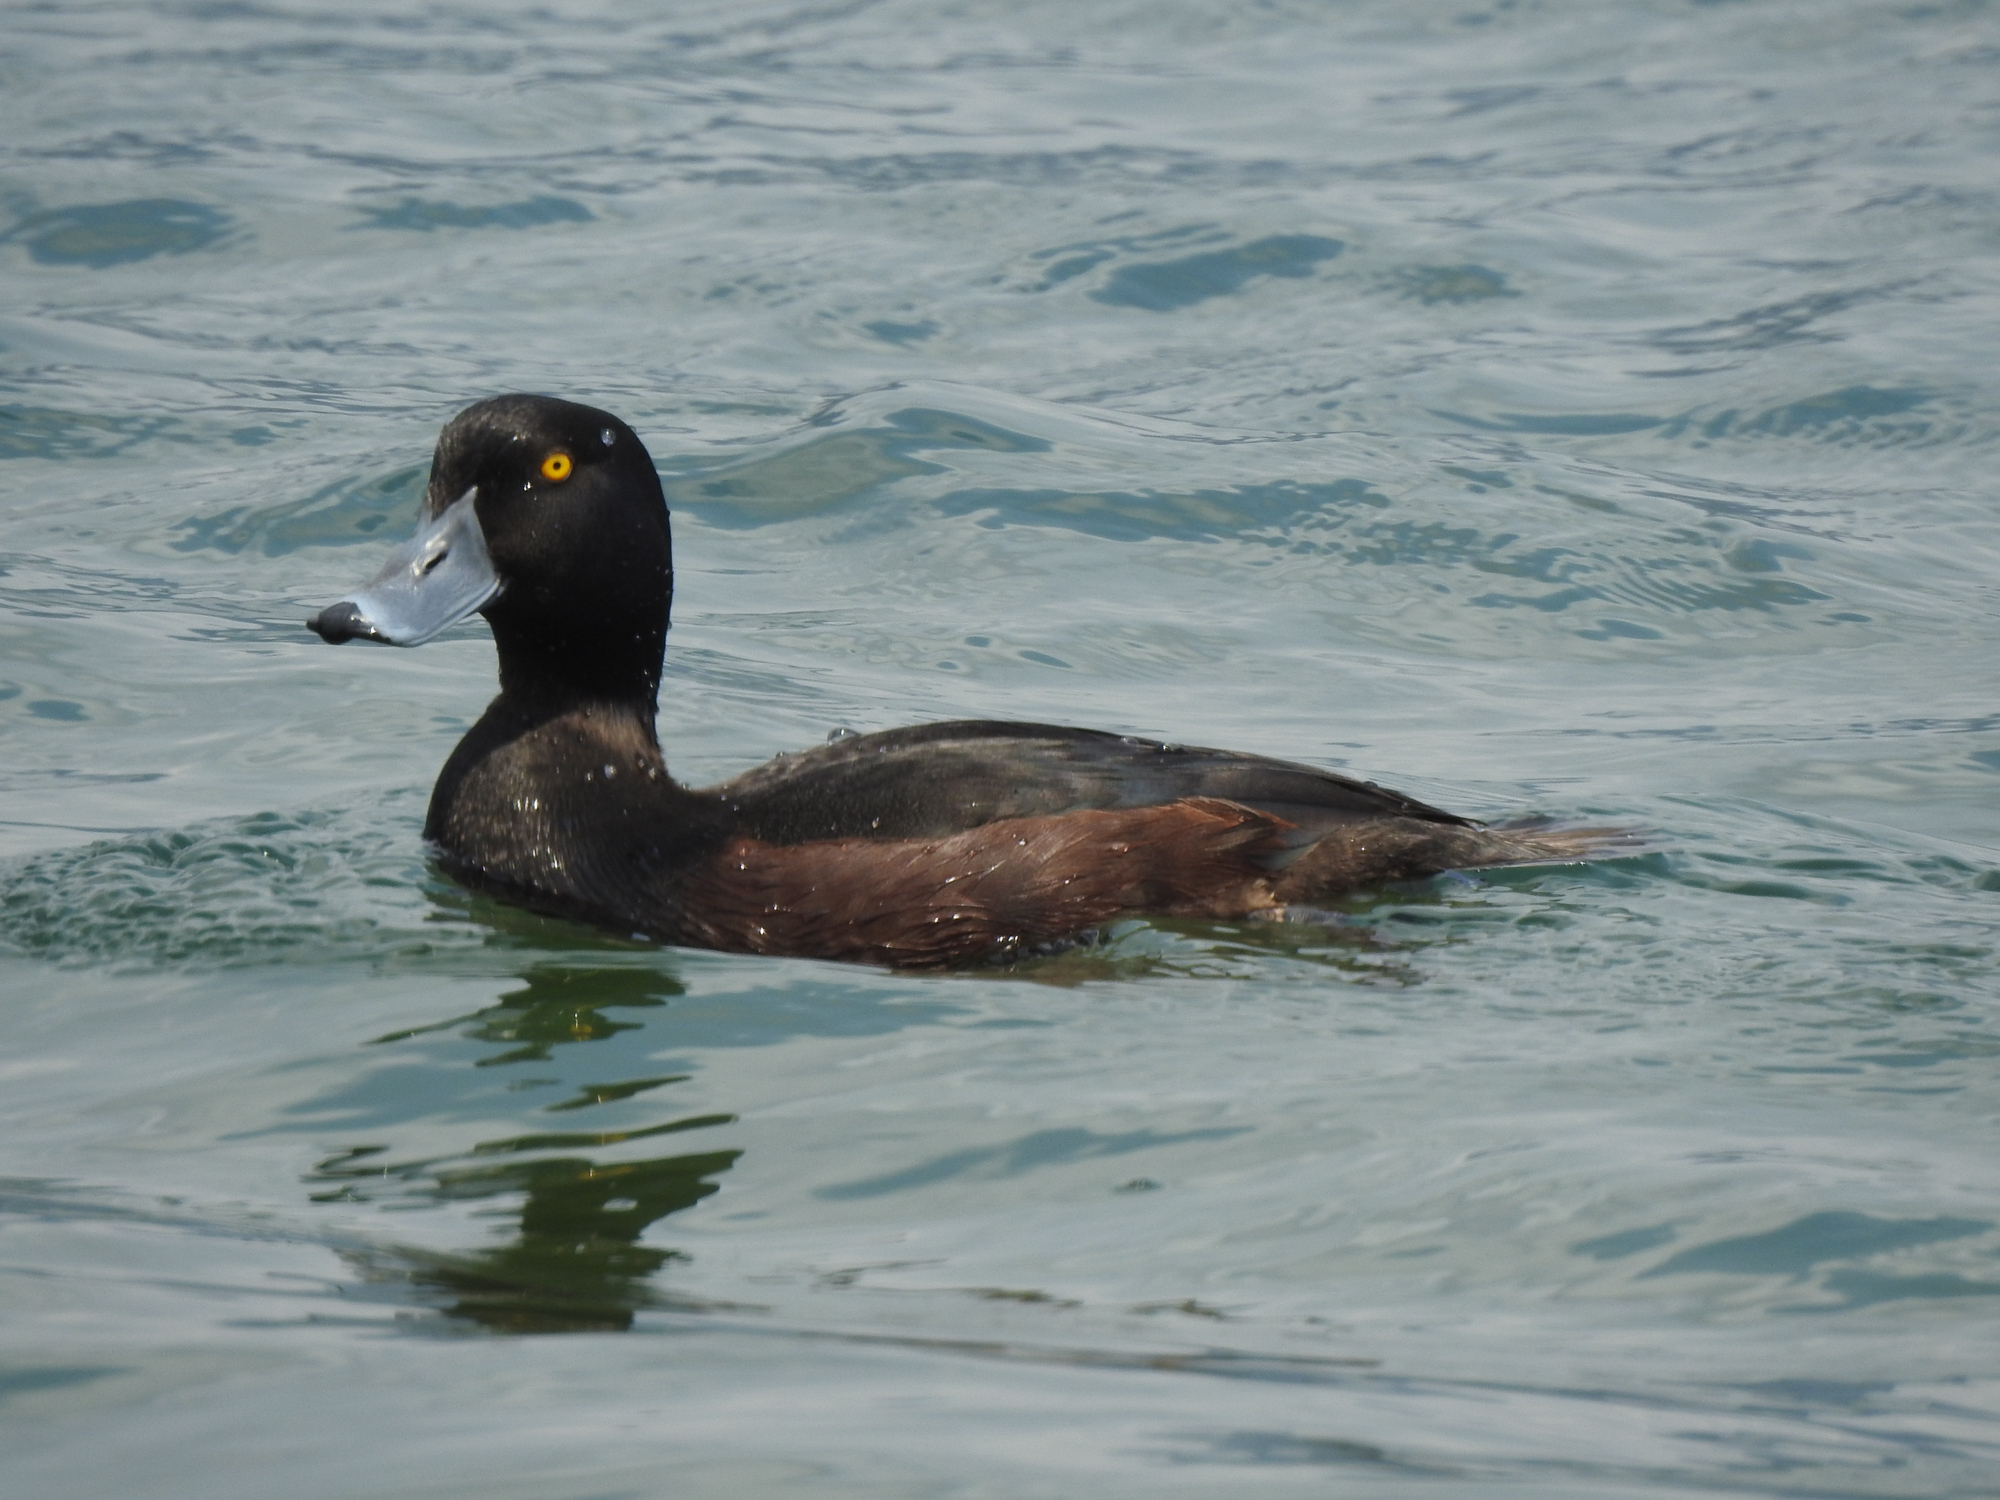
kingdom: Animalia
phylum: Chordata
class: Aves
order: Anseriformes
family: Anatidae
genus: Aythya
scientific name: Aythya novaeseelandiae
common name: New zealand scaup
